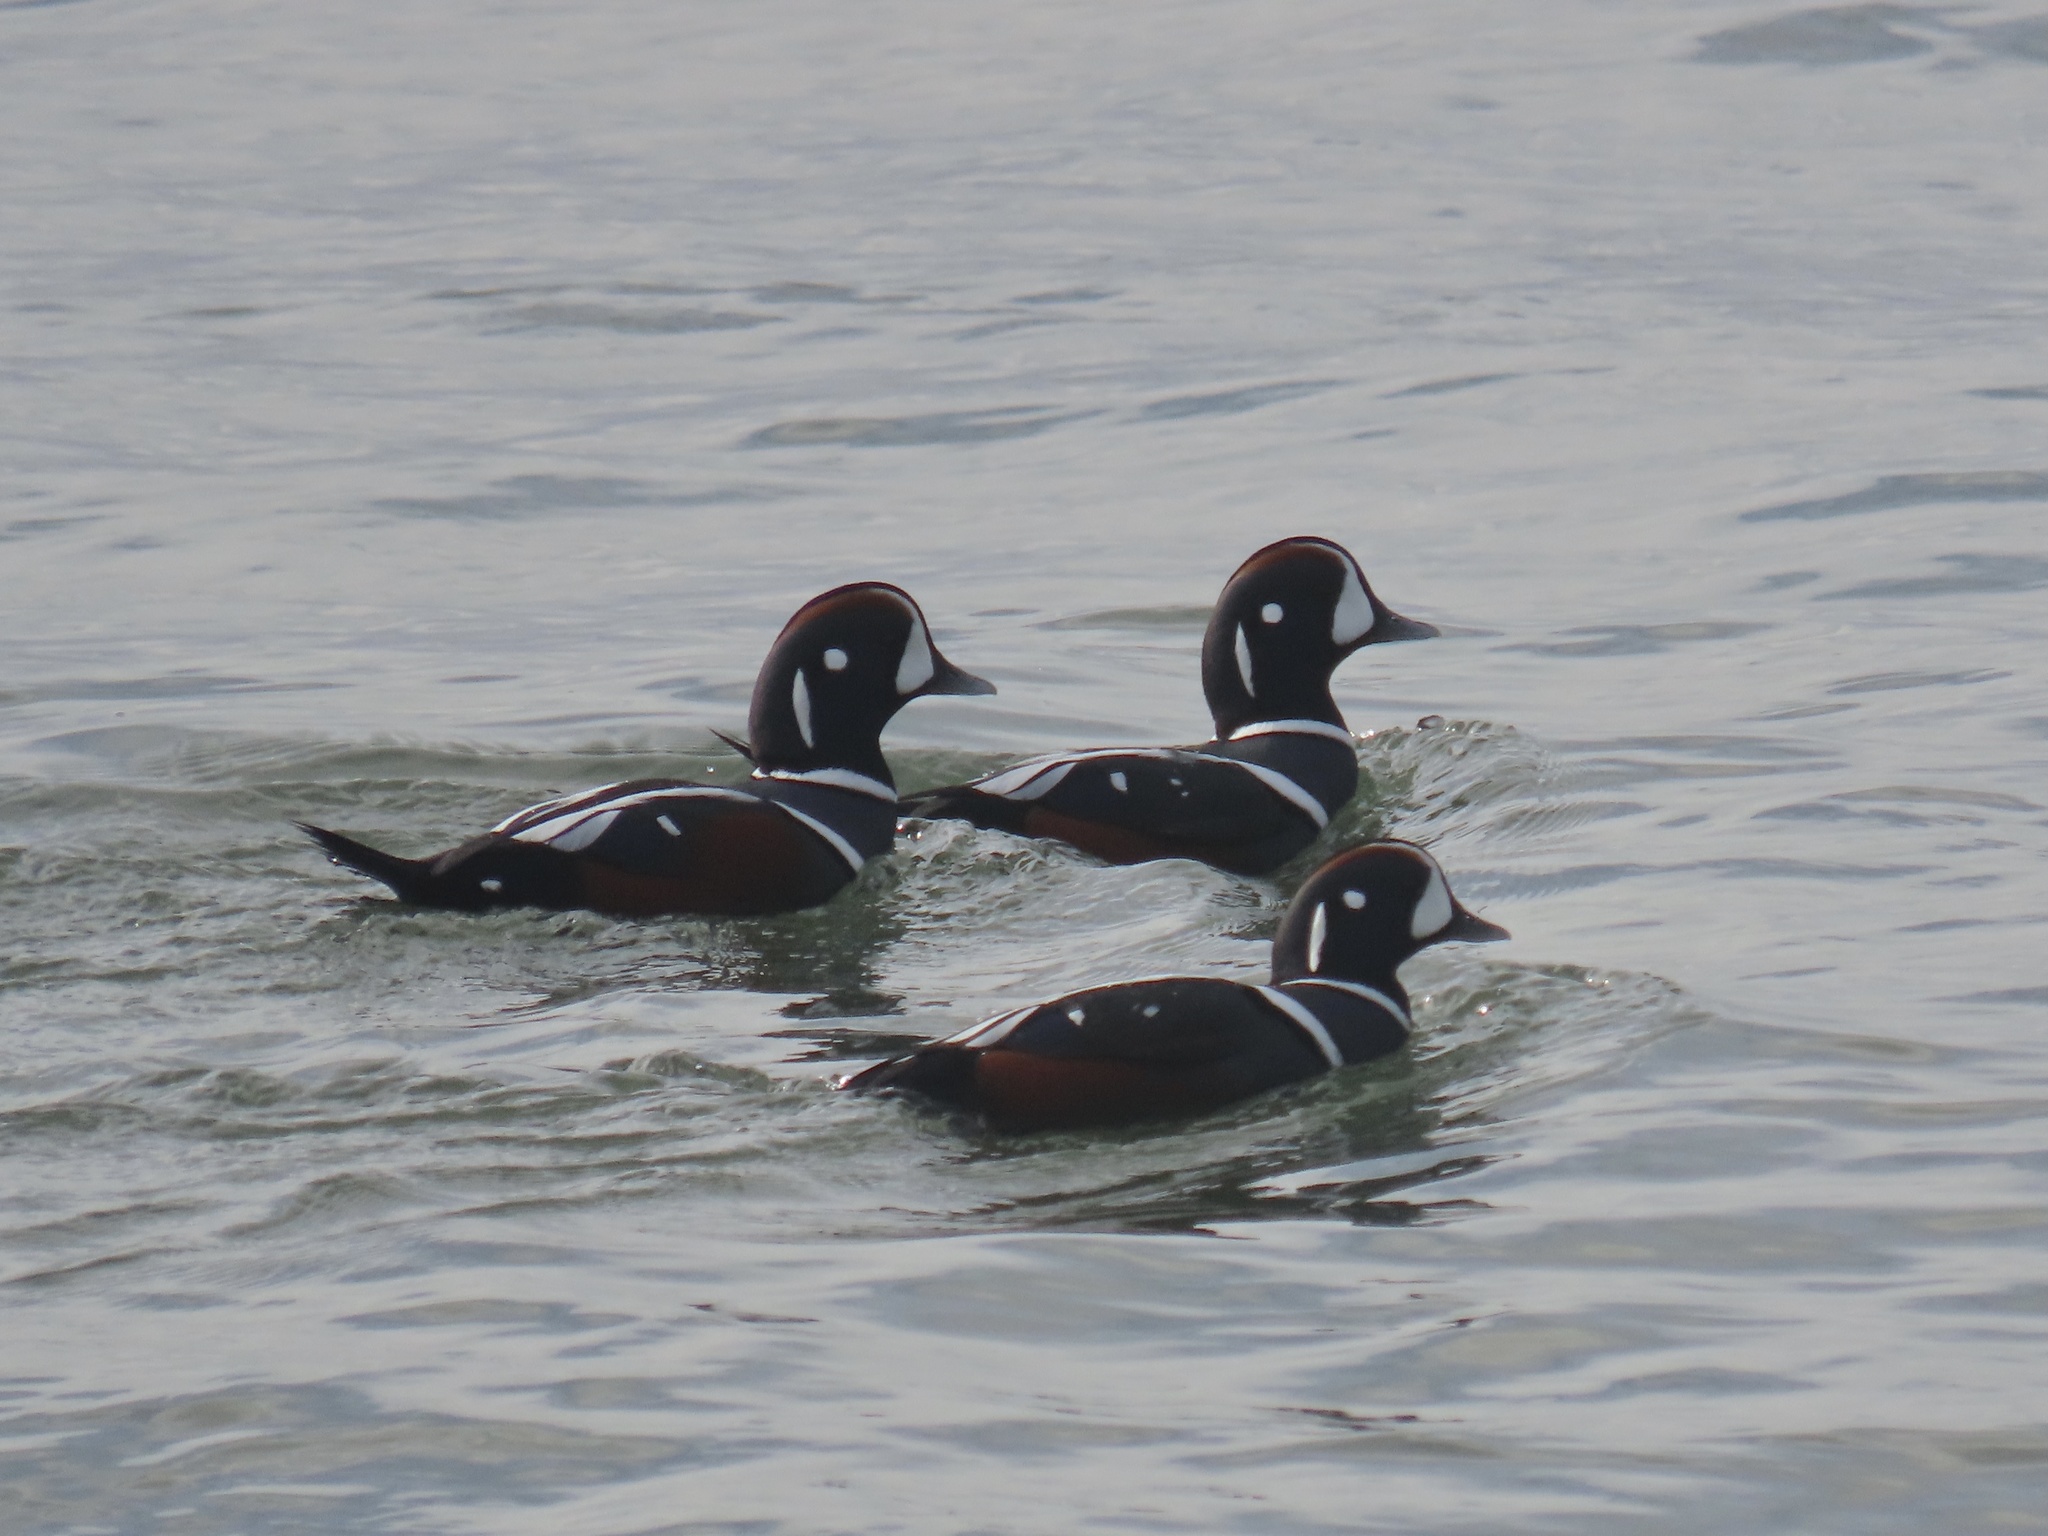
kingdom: Animalia
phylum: Chordata
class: Aves
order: Anseriformes
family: Anatidae
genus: Histrionicus
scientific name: Histrionicus histrionicus
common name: Harlequin duck
